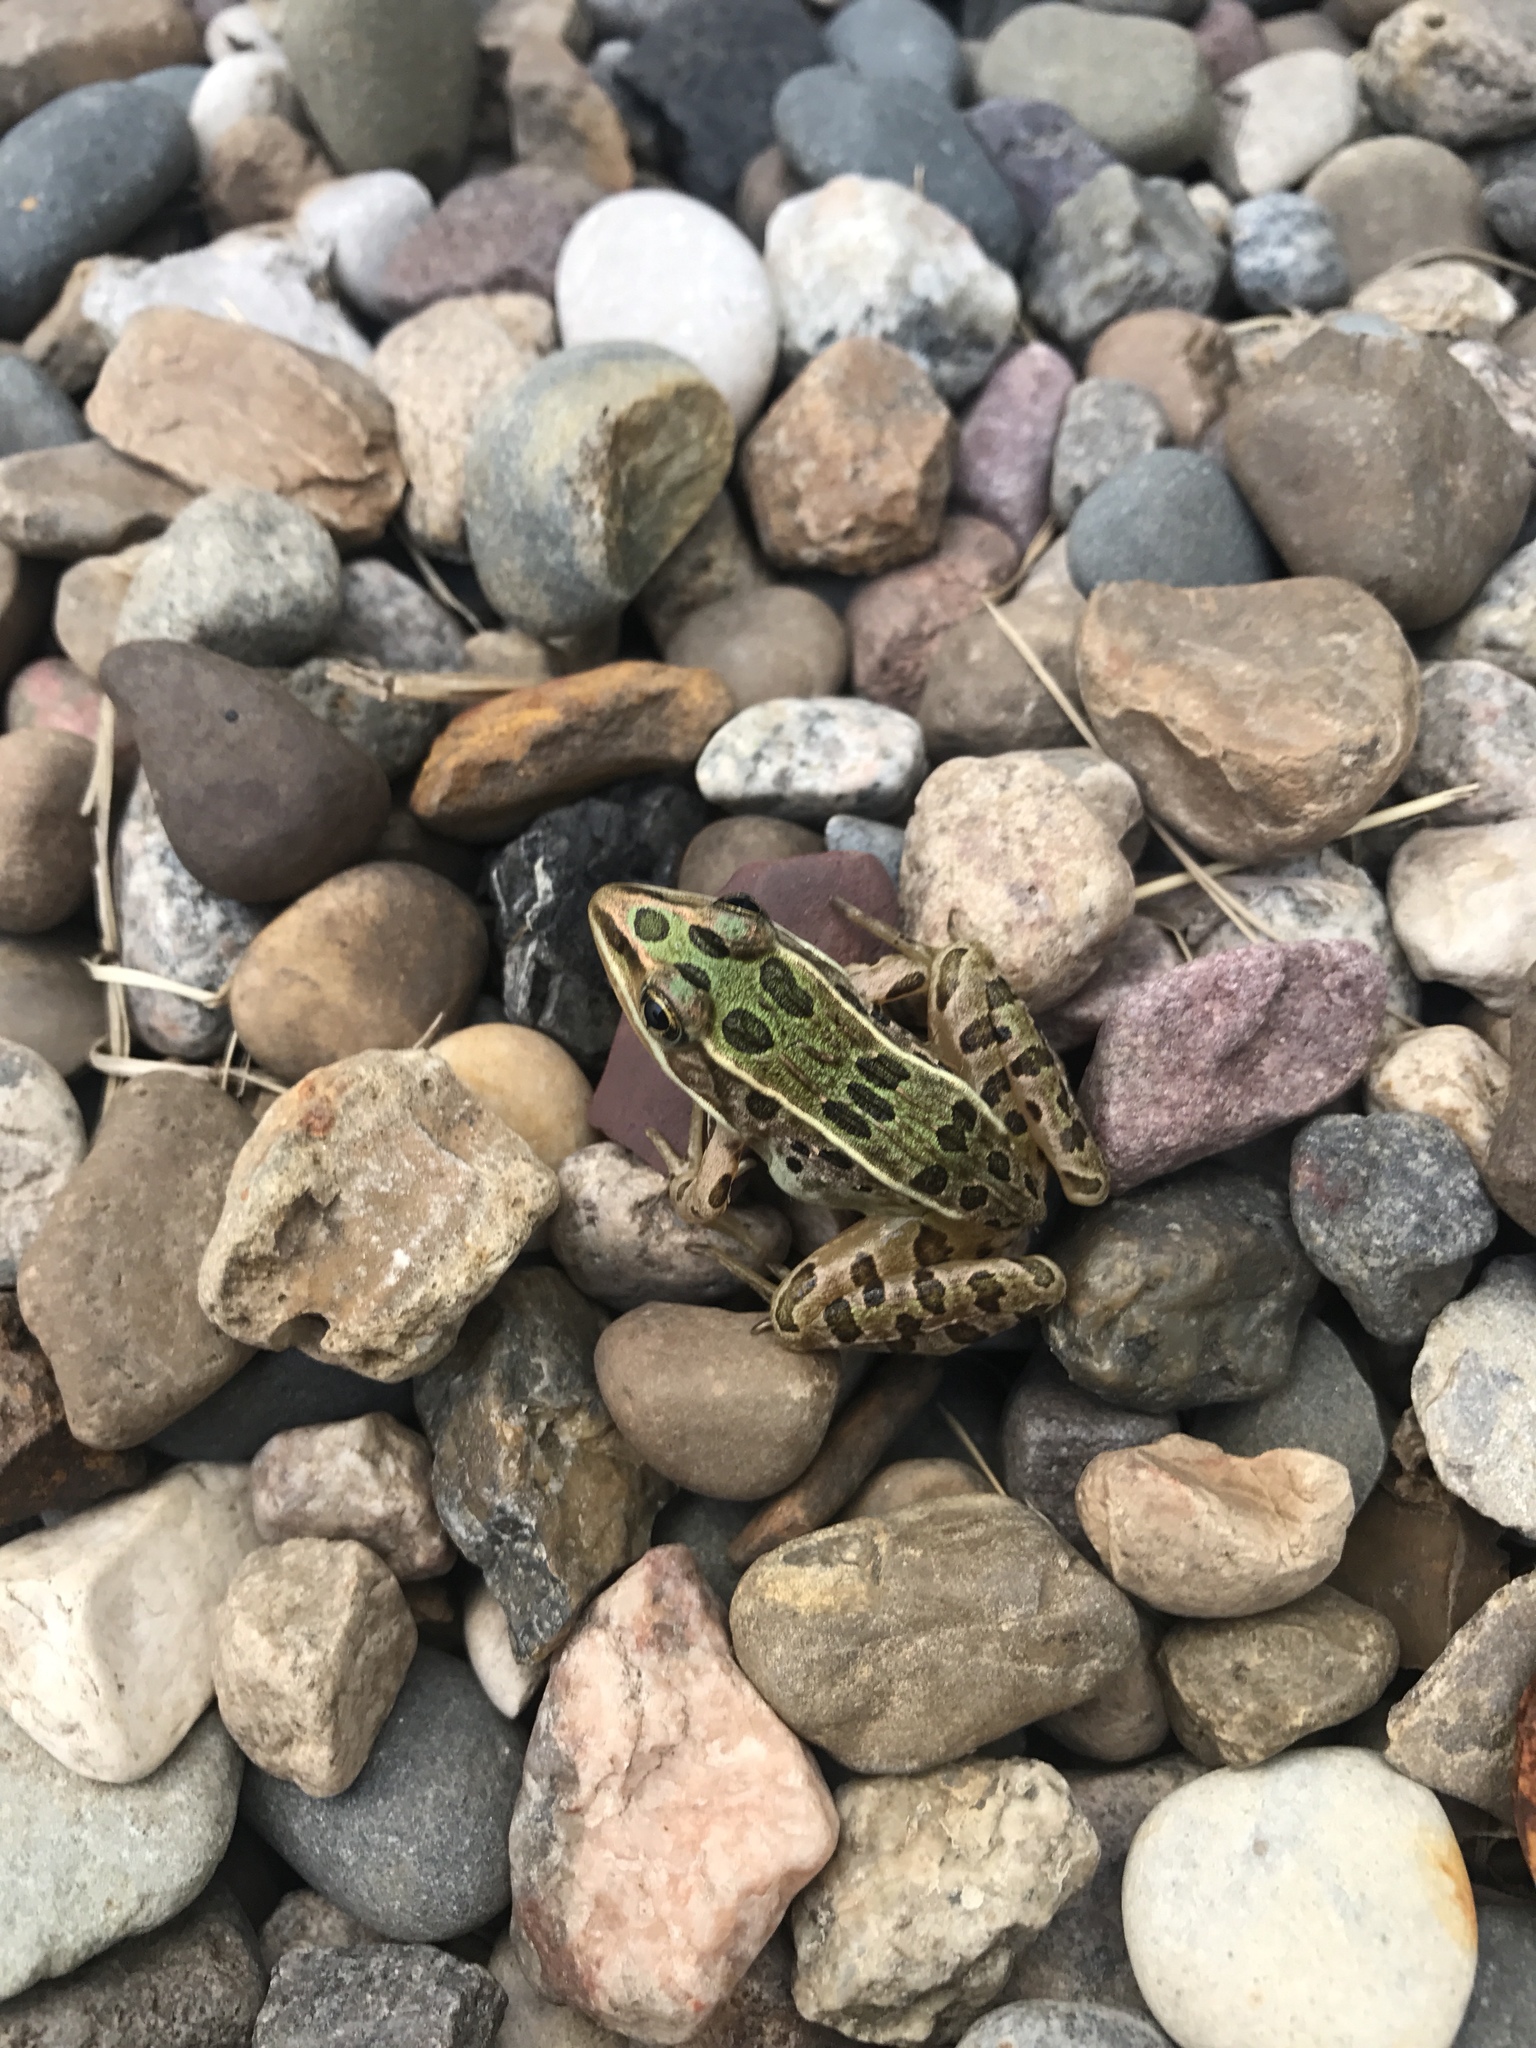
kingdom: Animalia
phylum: Chordata
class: Amphibia
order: Anura
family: Ranidae
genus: Lithobates
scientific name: Lithobates pipiens
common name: Northern leopard frog
